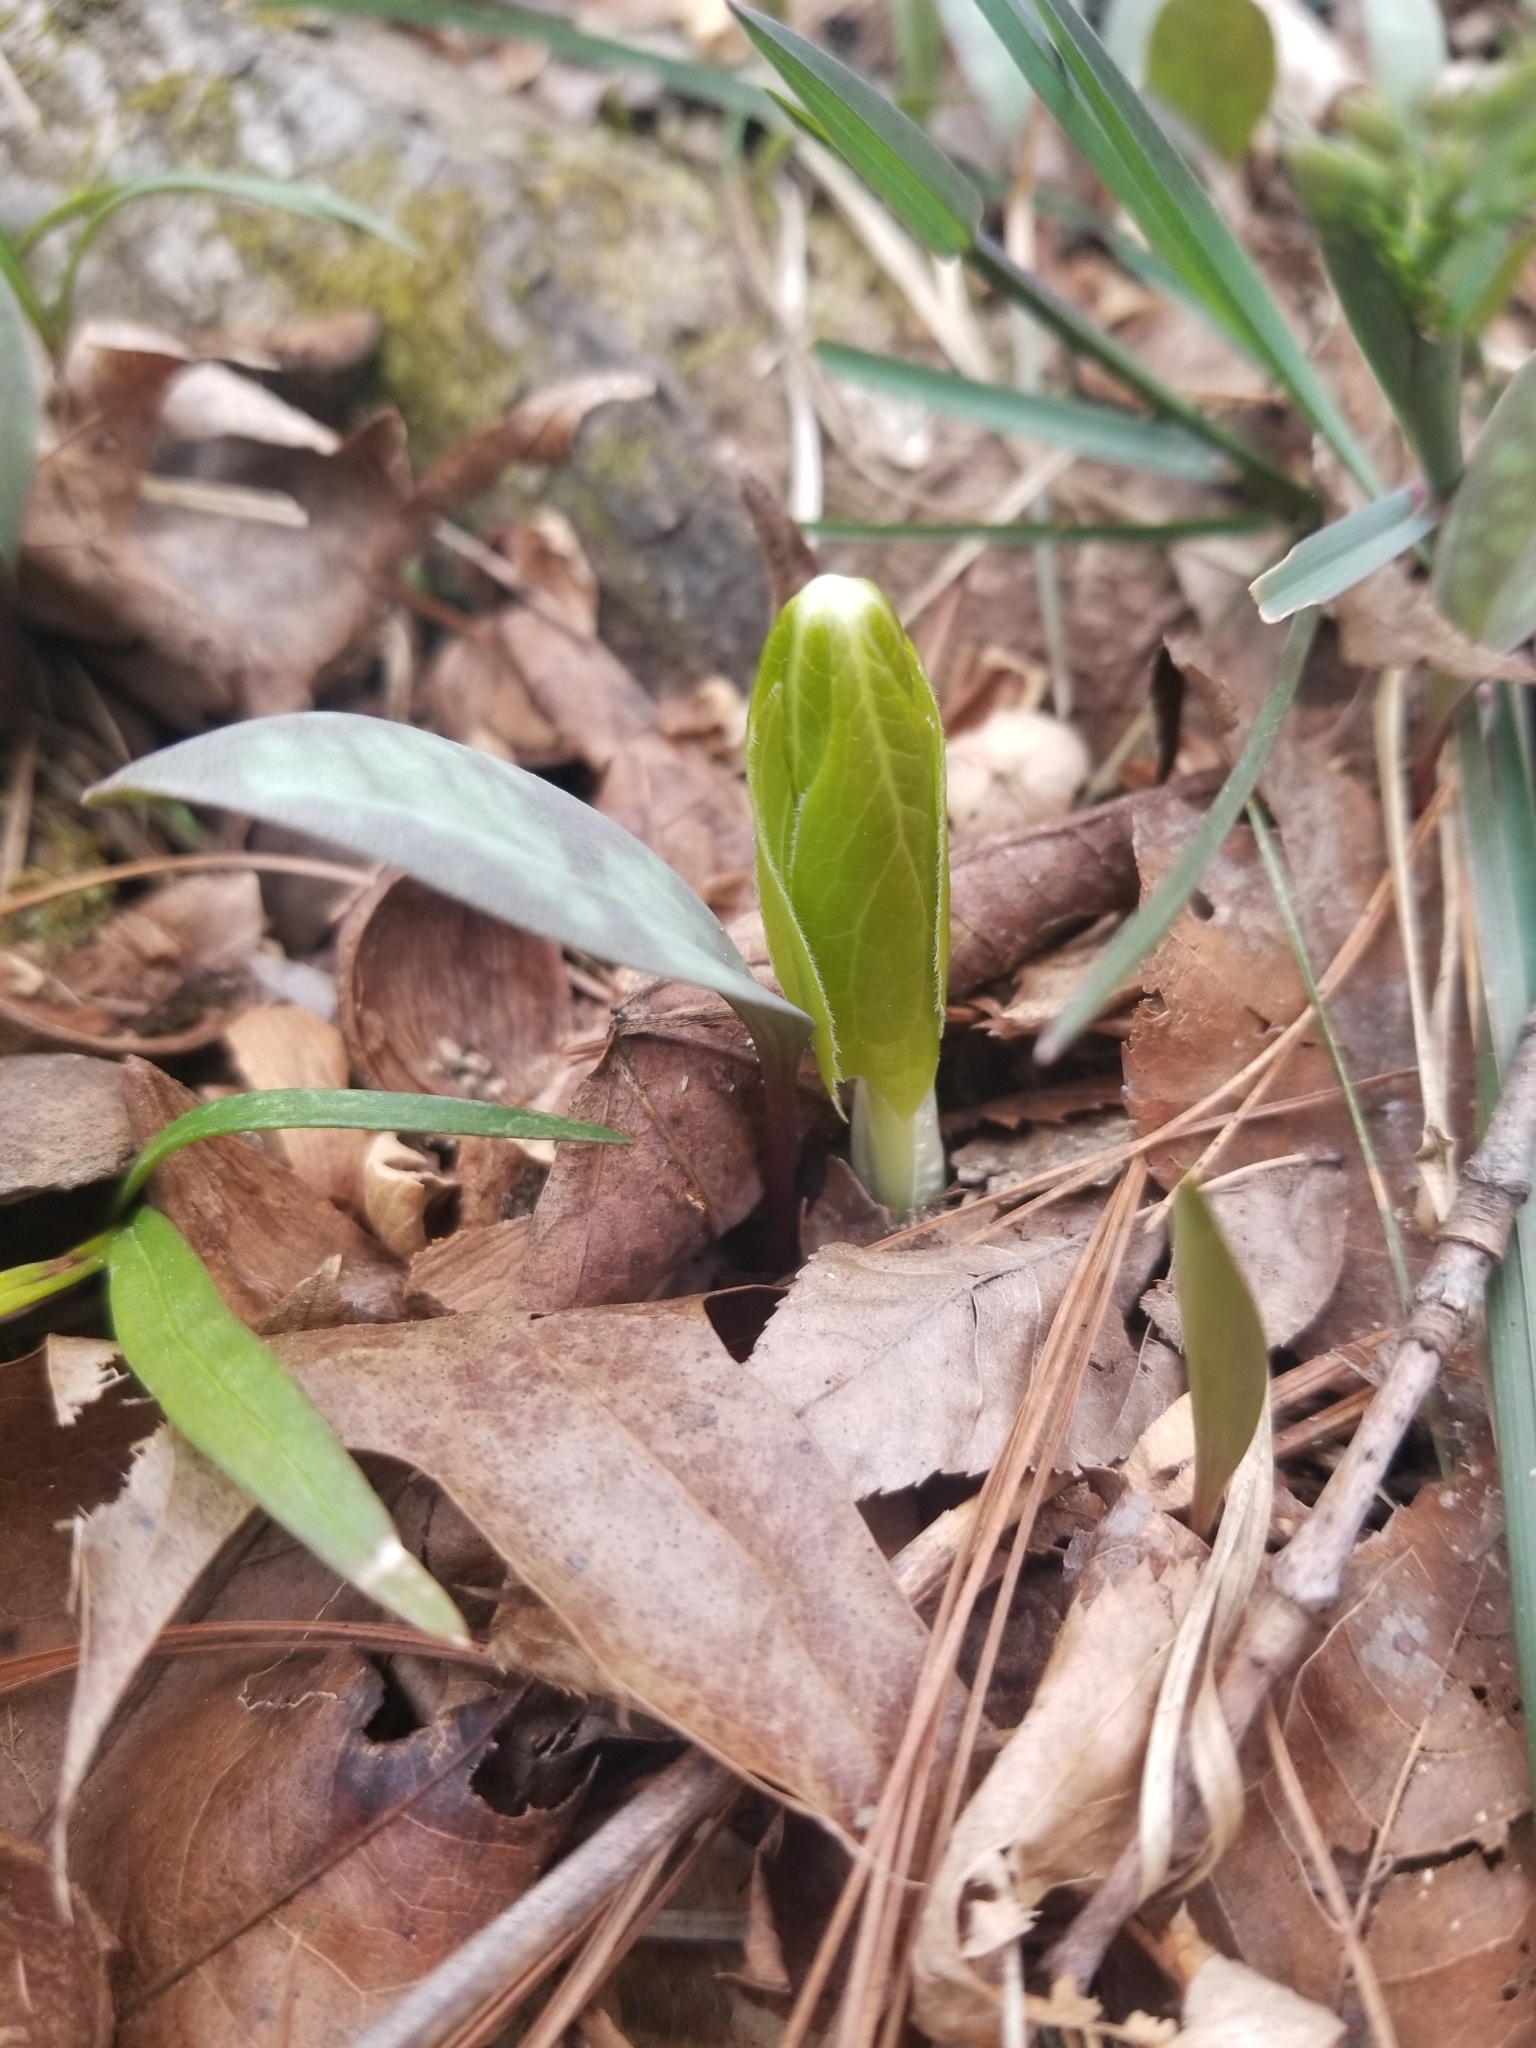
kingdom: Plantae
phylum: Tracheophyta
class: Magnoliopsida
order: Ranunculales
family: Berberidaceae
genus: Podophyllum
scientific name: Podophyllum peltatum
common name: Wild mandrake
